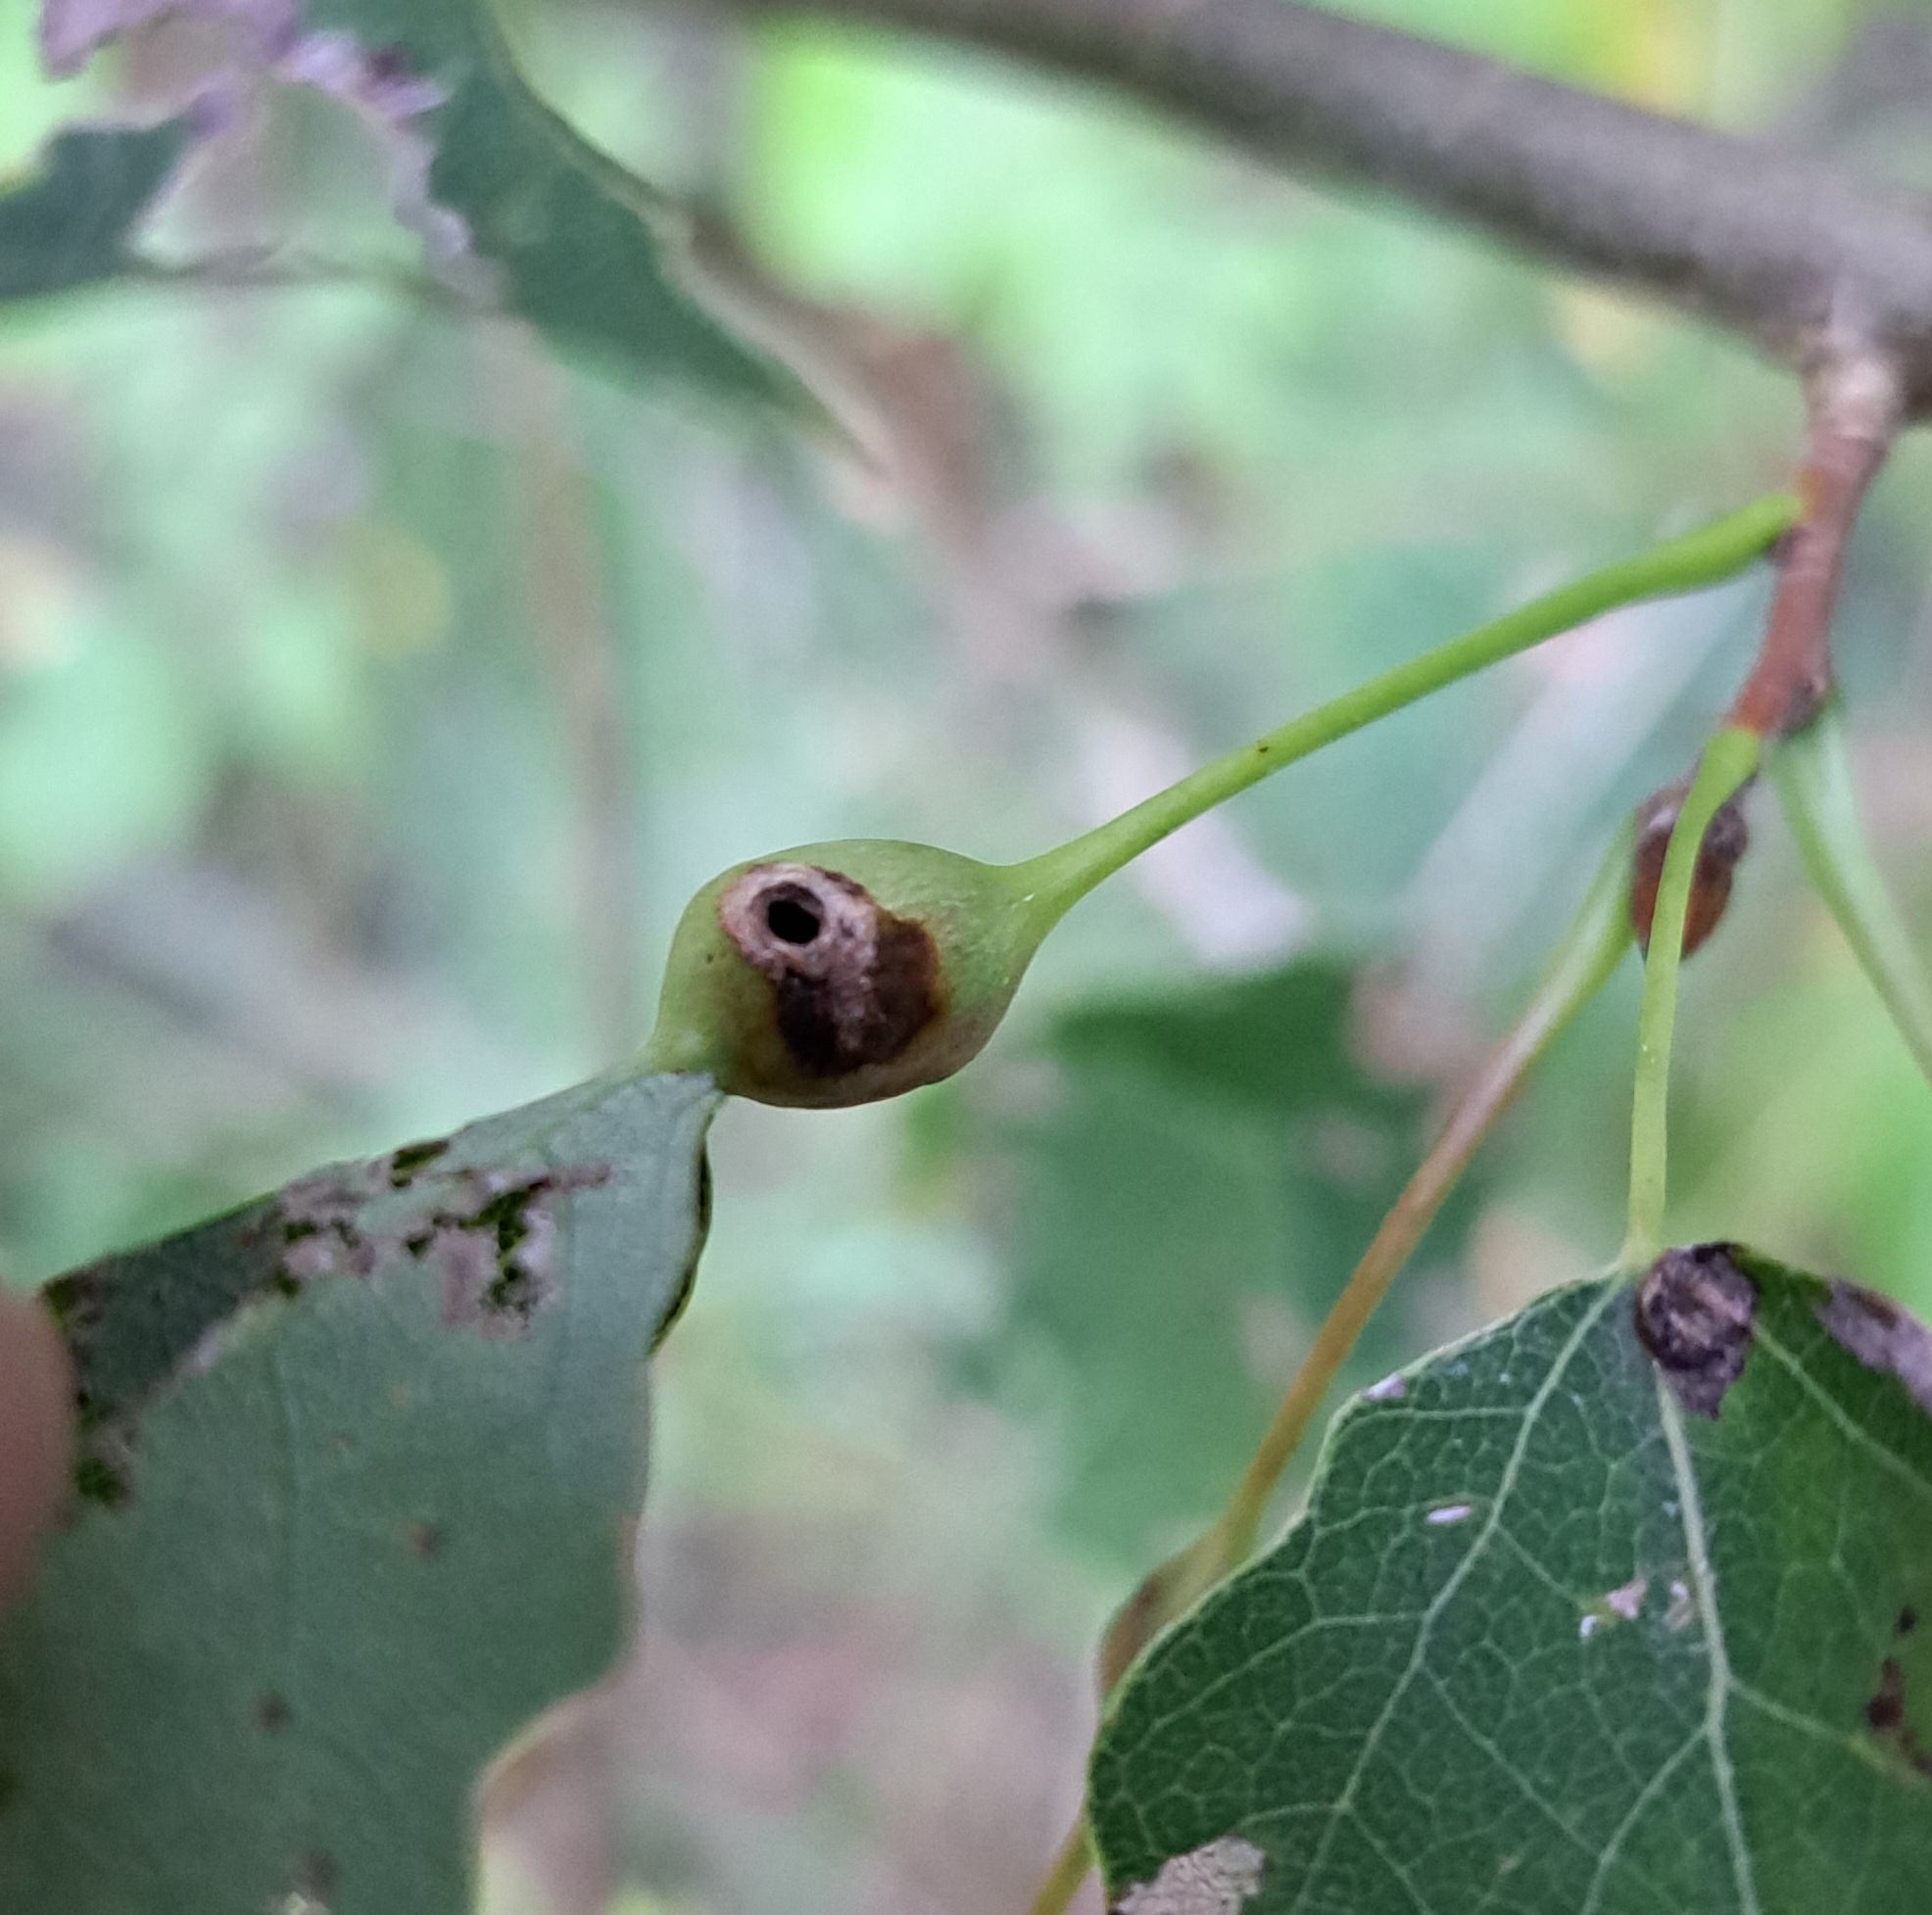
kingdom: Animalia
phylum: Arthropoda
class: Insecta
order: Diptera
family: Cecidomyiidae
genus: Contarinia
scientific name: Contarinia petioli
